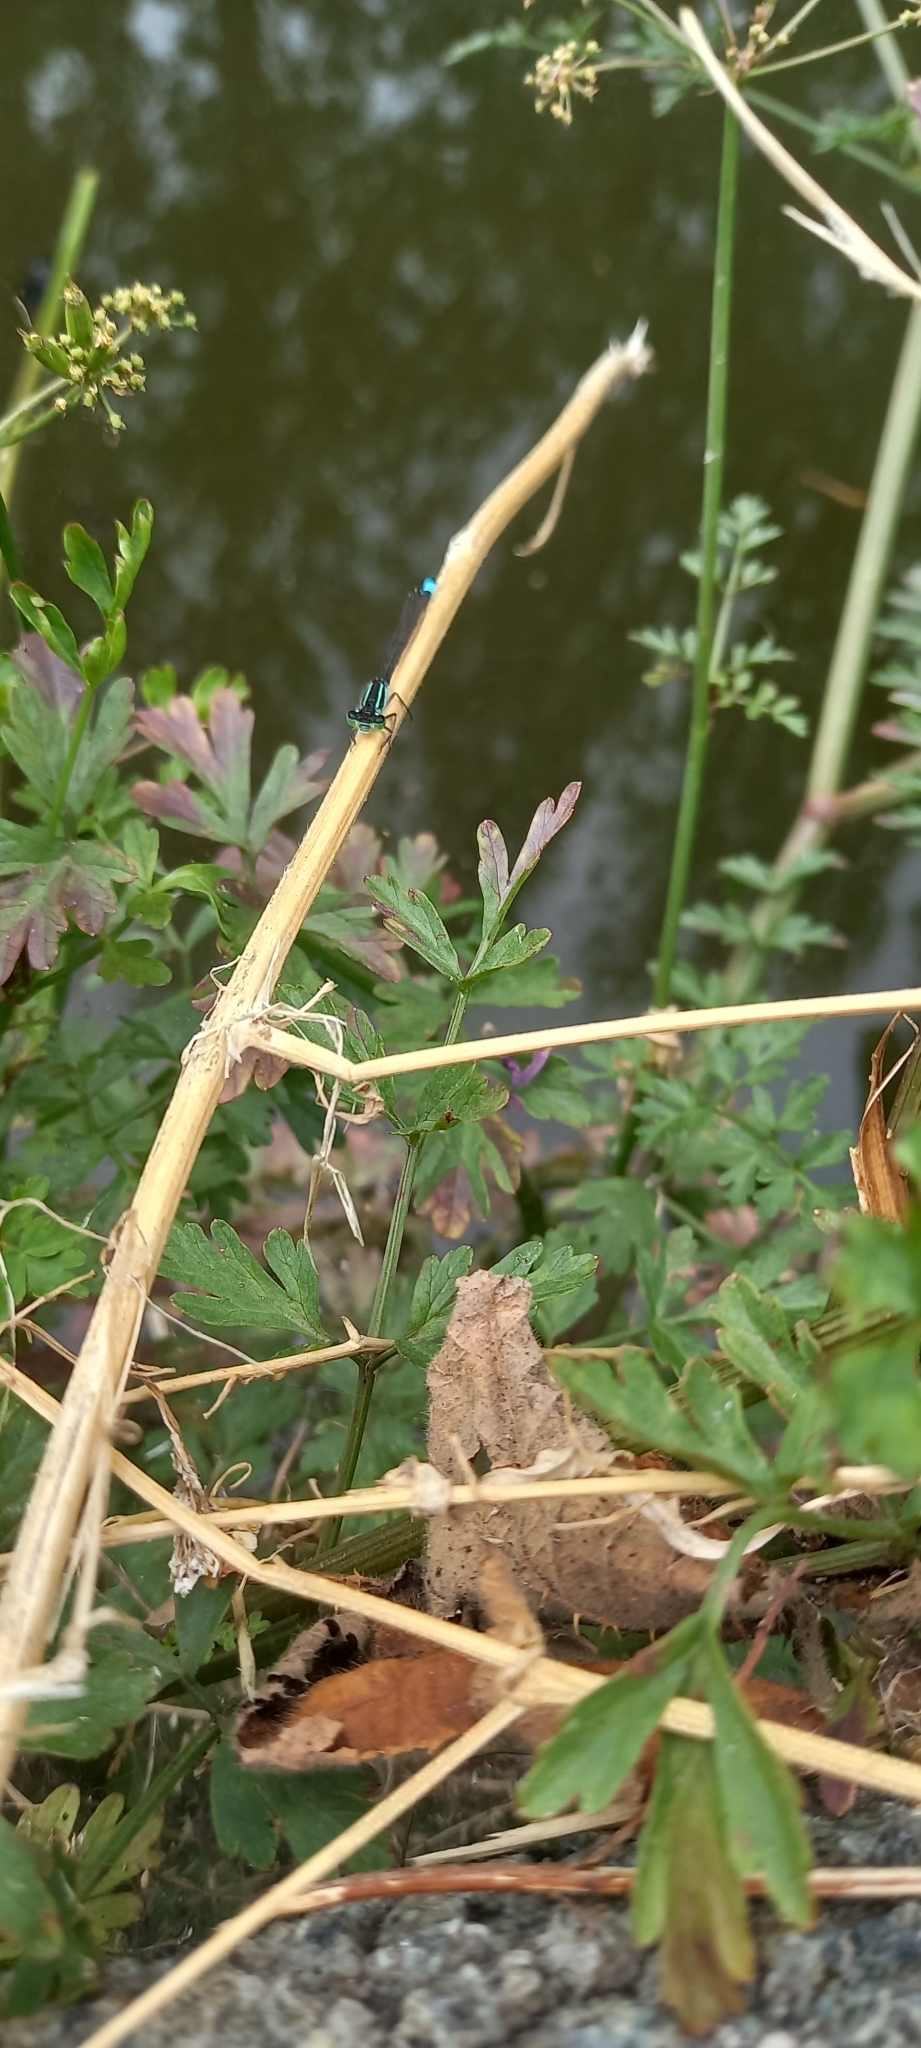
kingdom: Animalia
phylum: Arthropoda
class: Insecta
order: Odonata
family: Coenagrionidae
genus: Ischnura
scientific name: Ischnura elegans
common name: Blue-tailed damselfly
